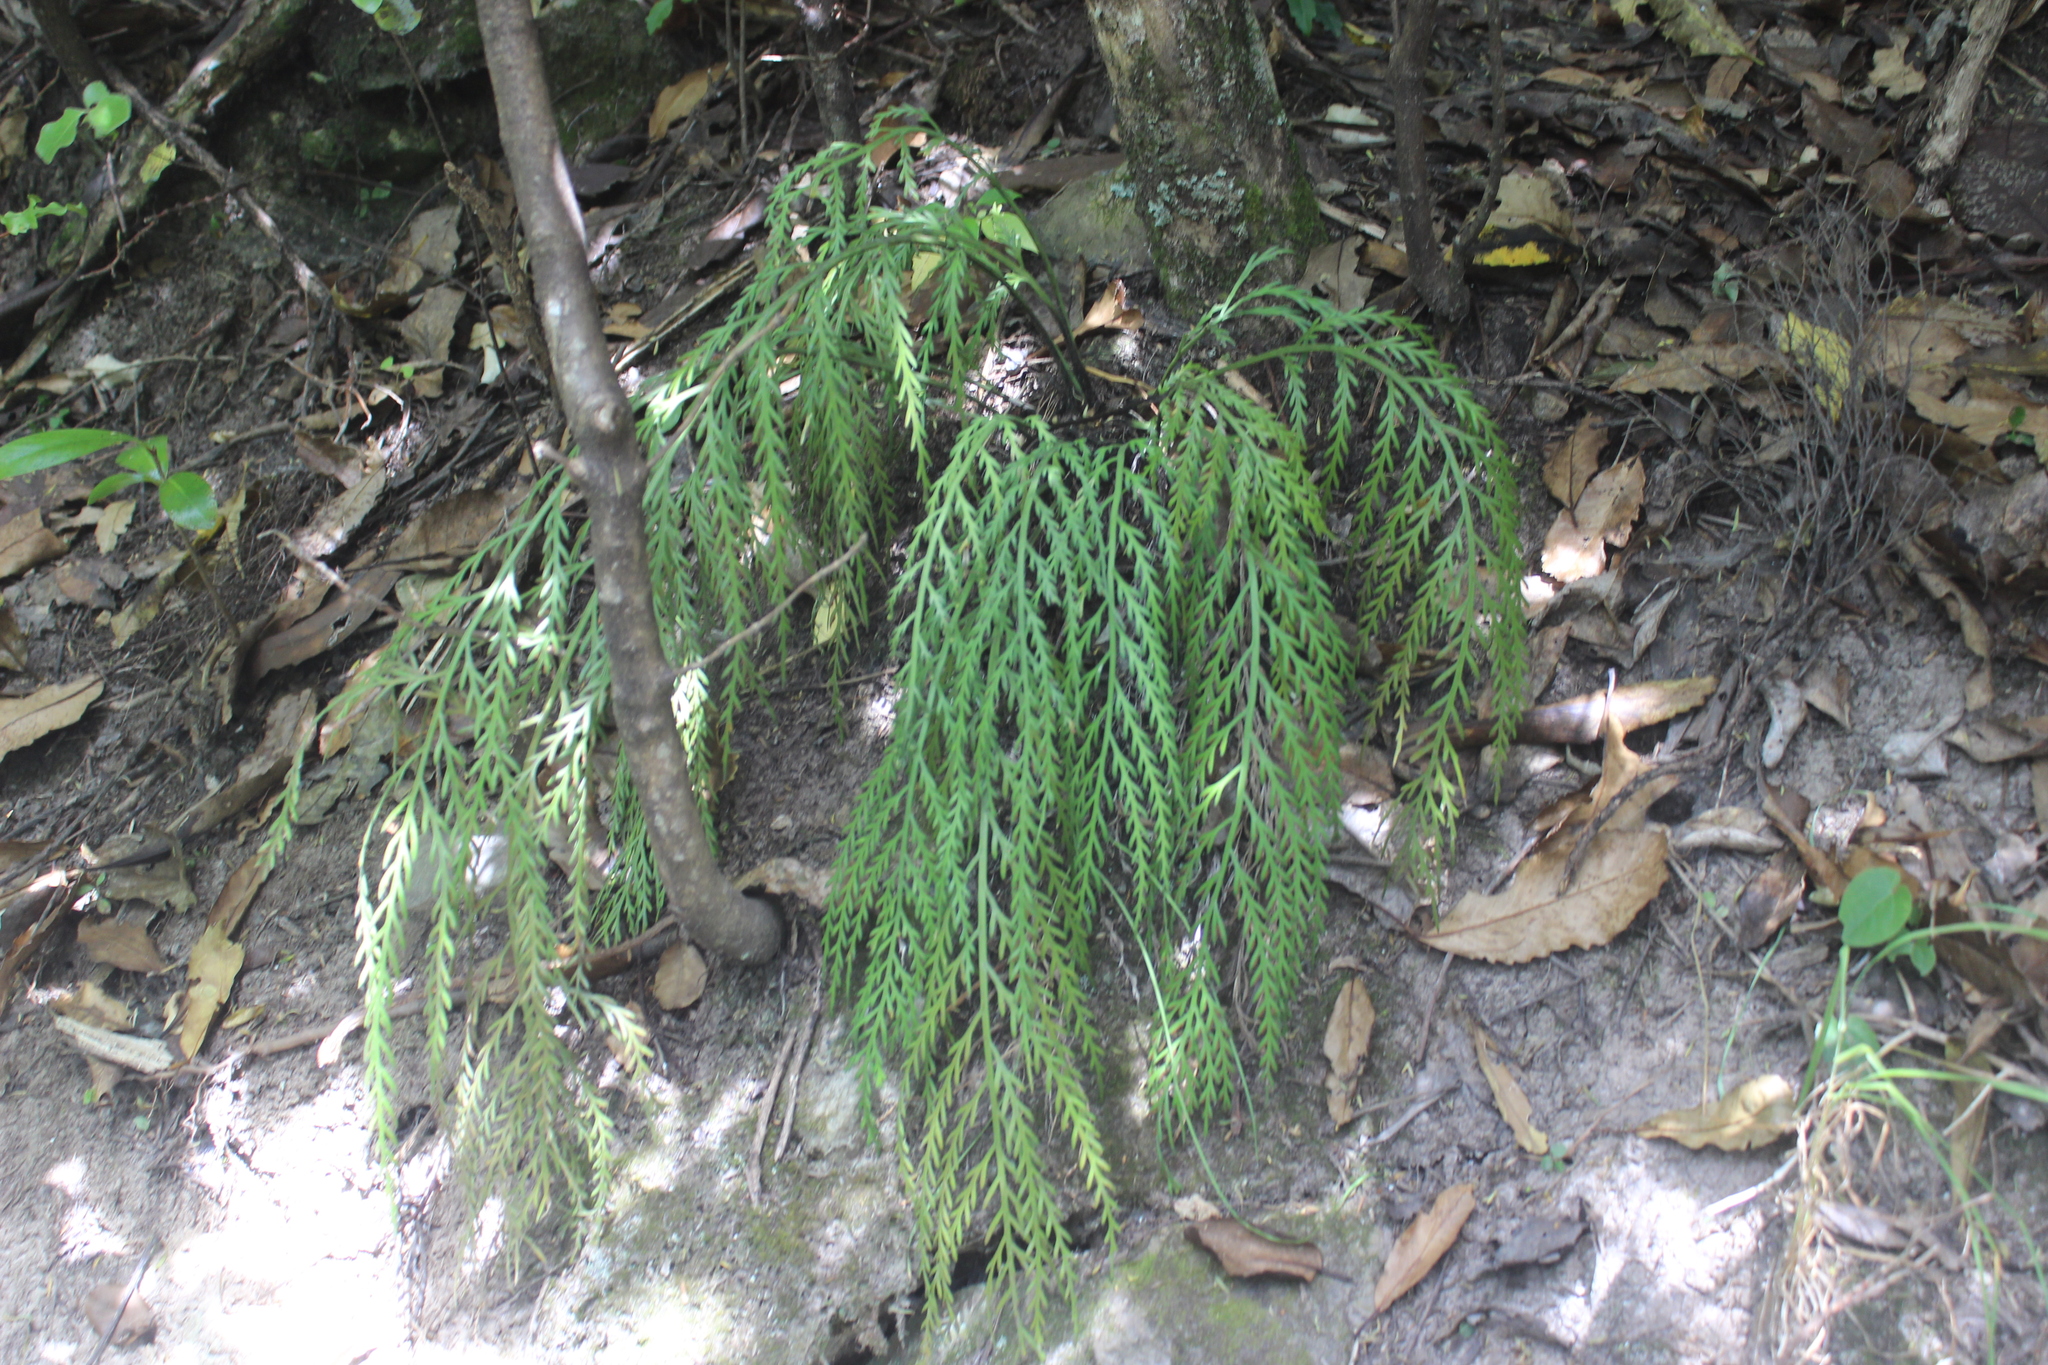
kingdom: Plantae
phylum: Tracheophyta
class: Polypodiopsida
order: Polypodiales
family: Aspleniaceae
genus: Asplenium
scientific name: Asplenium flaccidum
